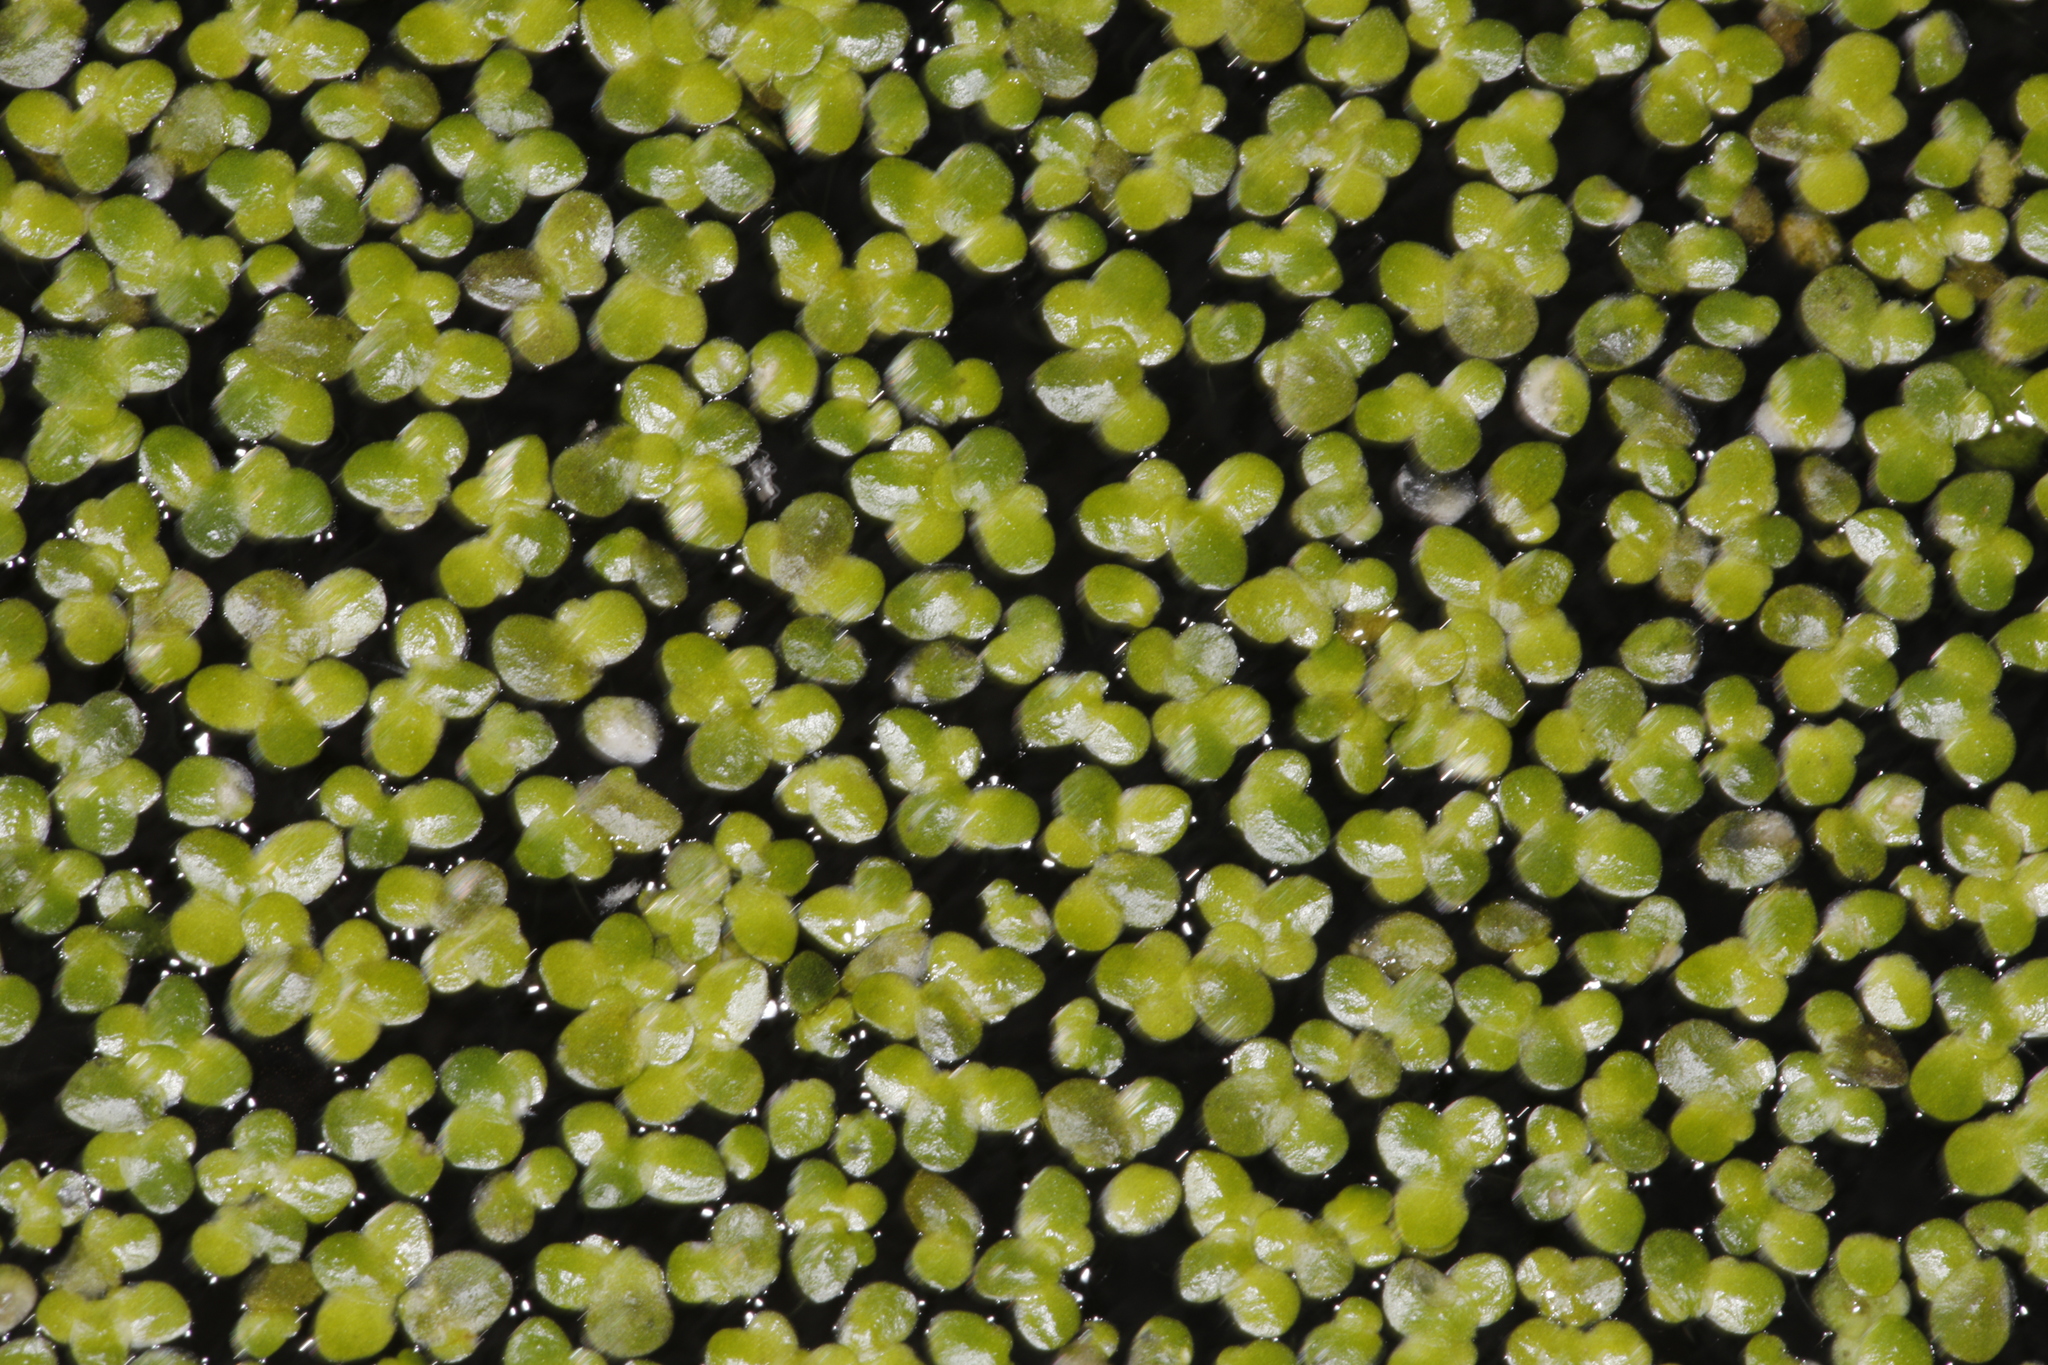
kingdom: Plantae
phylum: Tracheophyta
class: Liliopsida
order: Alismatales
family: Araceae
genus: Lemna
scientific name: Lemna minor
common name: Common duckweed
